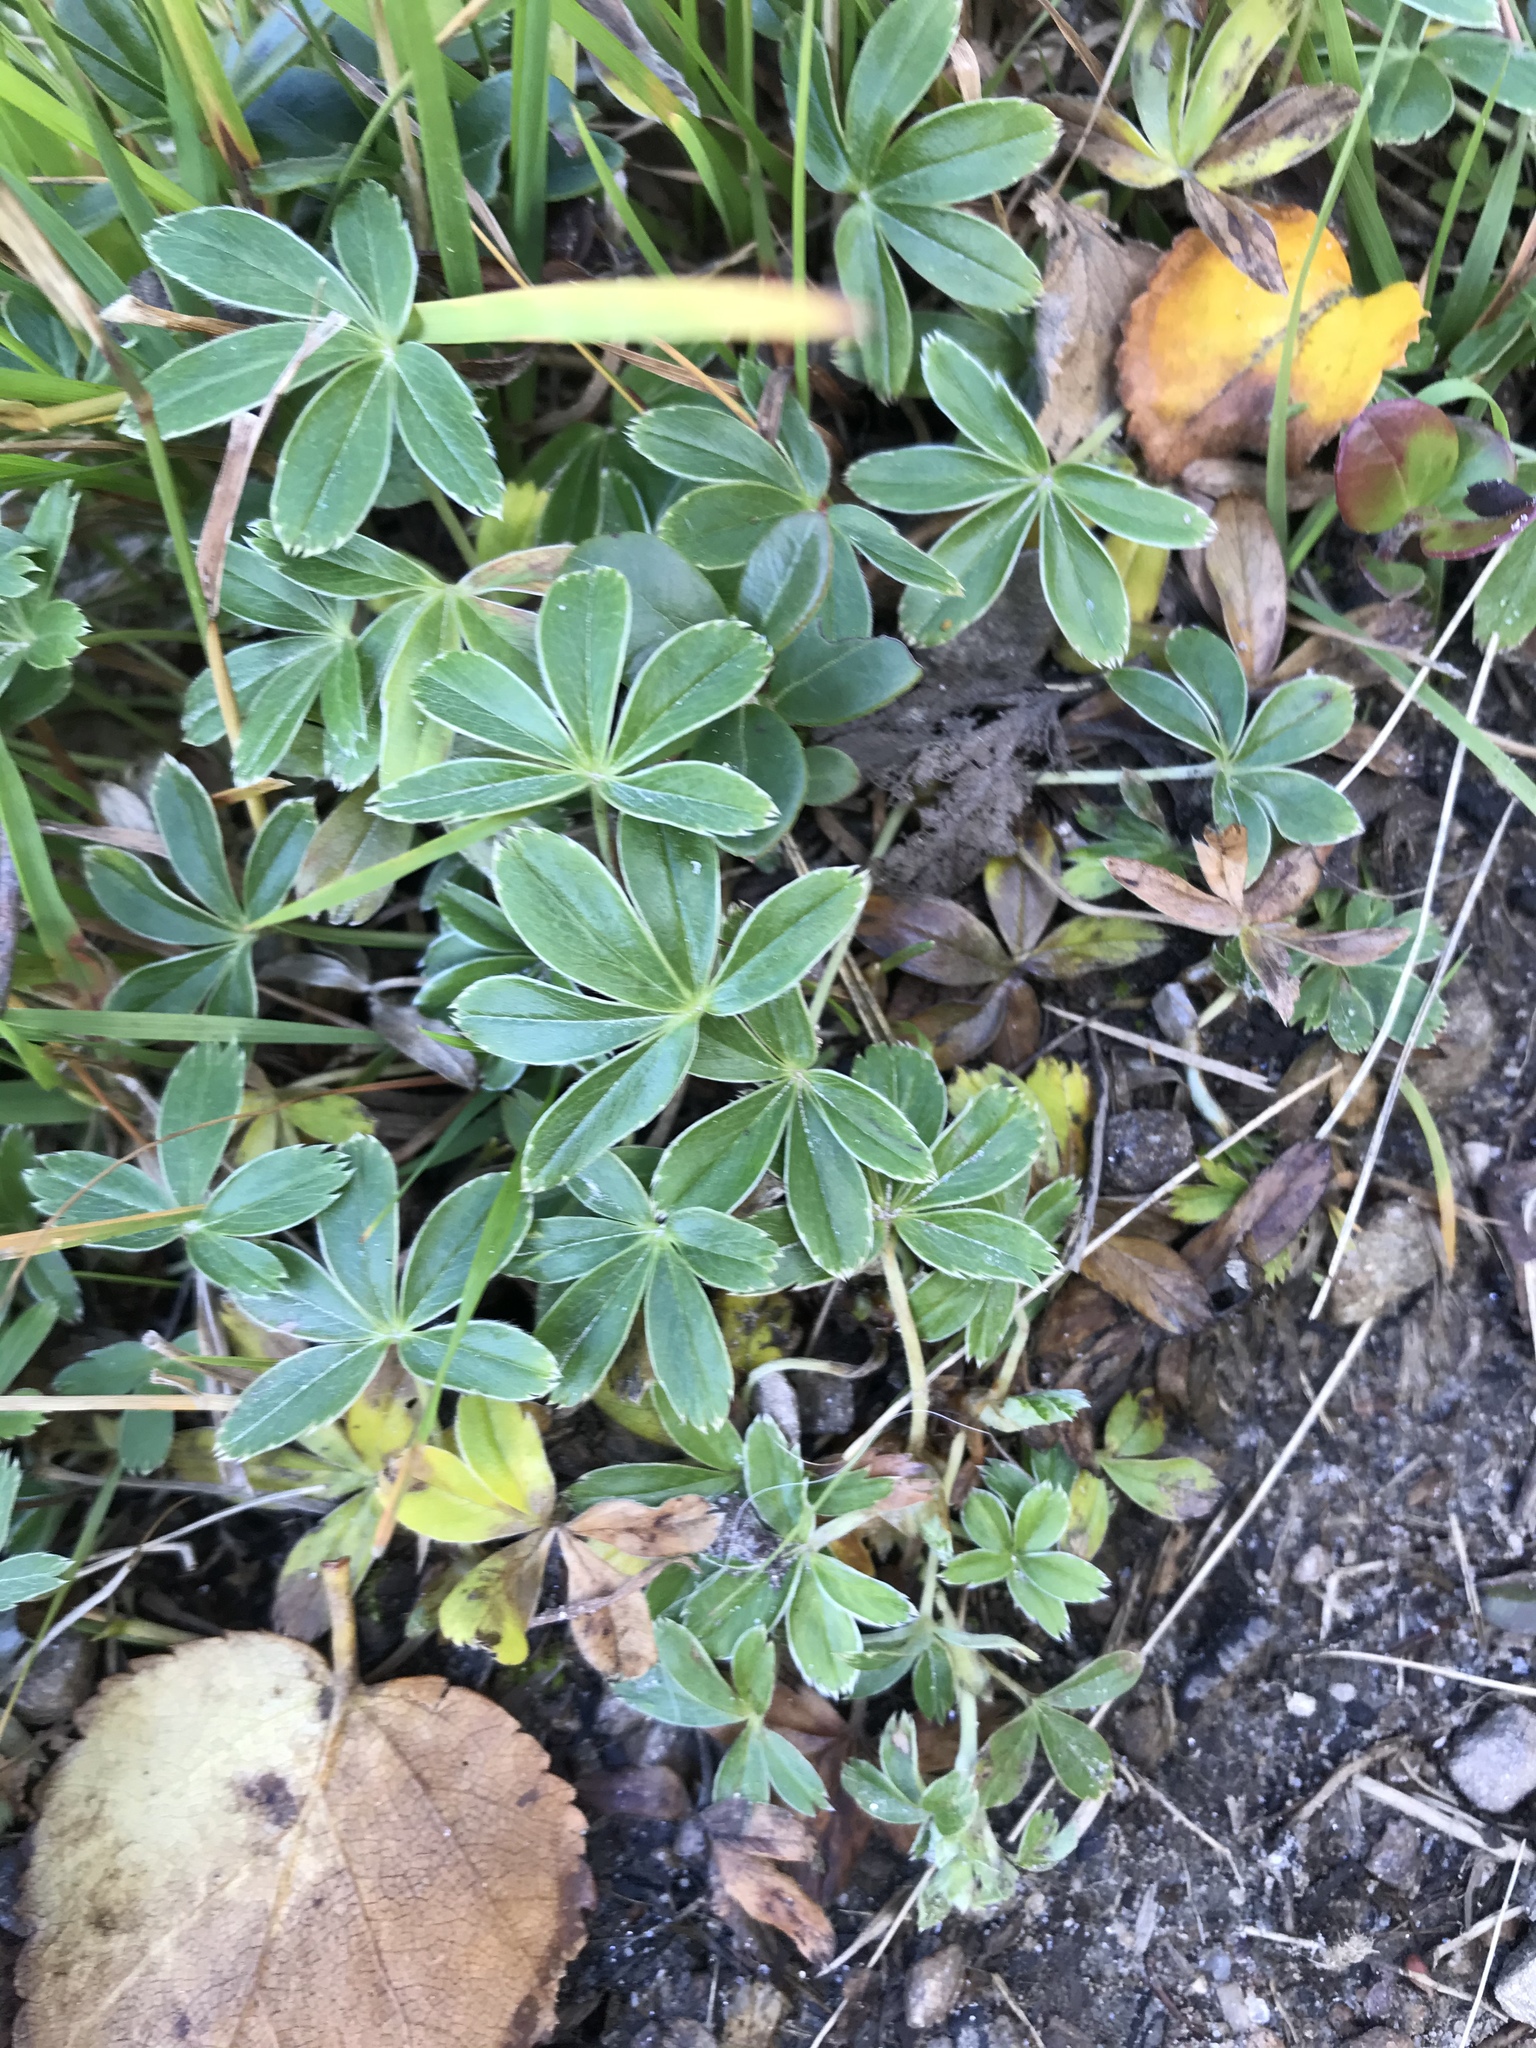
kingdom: Plantae
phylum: Tracheophyta
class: Magnoliopsida
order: Rosales
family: Rosaceae
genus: Alchemilla
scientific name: Alchemilla alpina
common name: Alpine lady's-mantle
